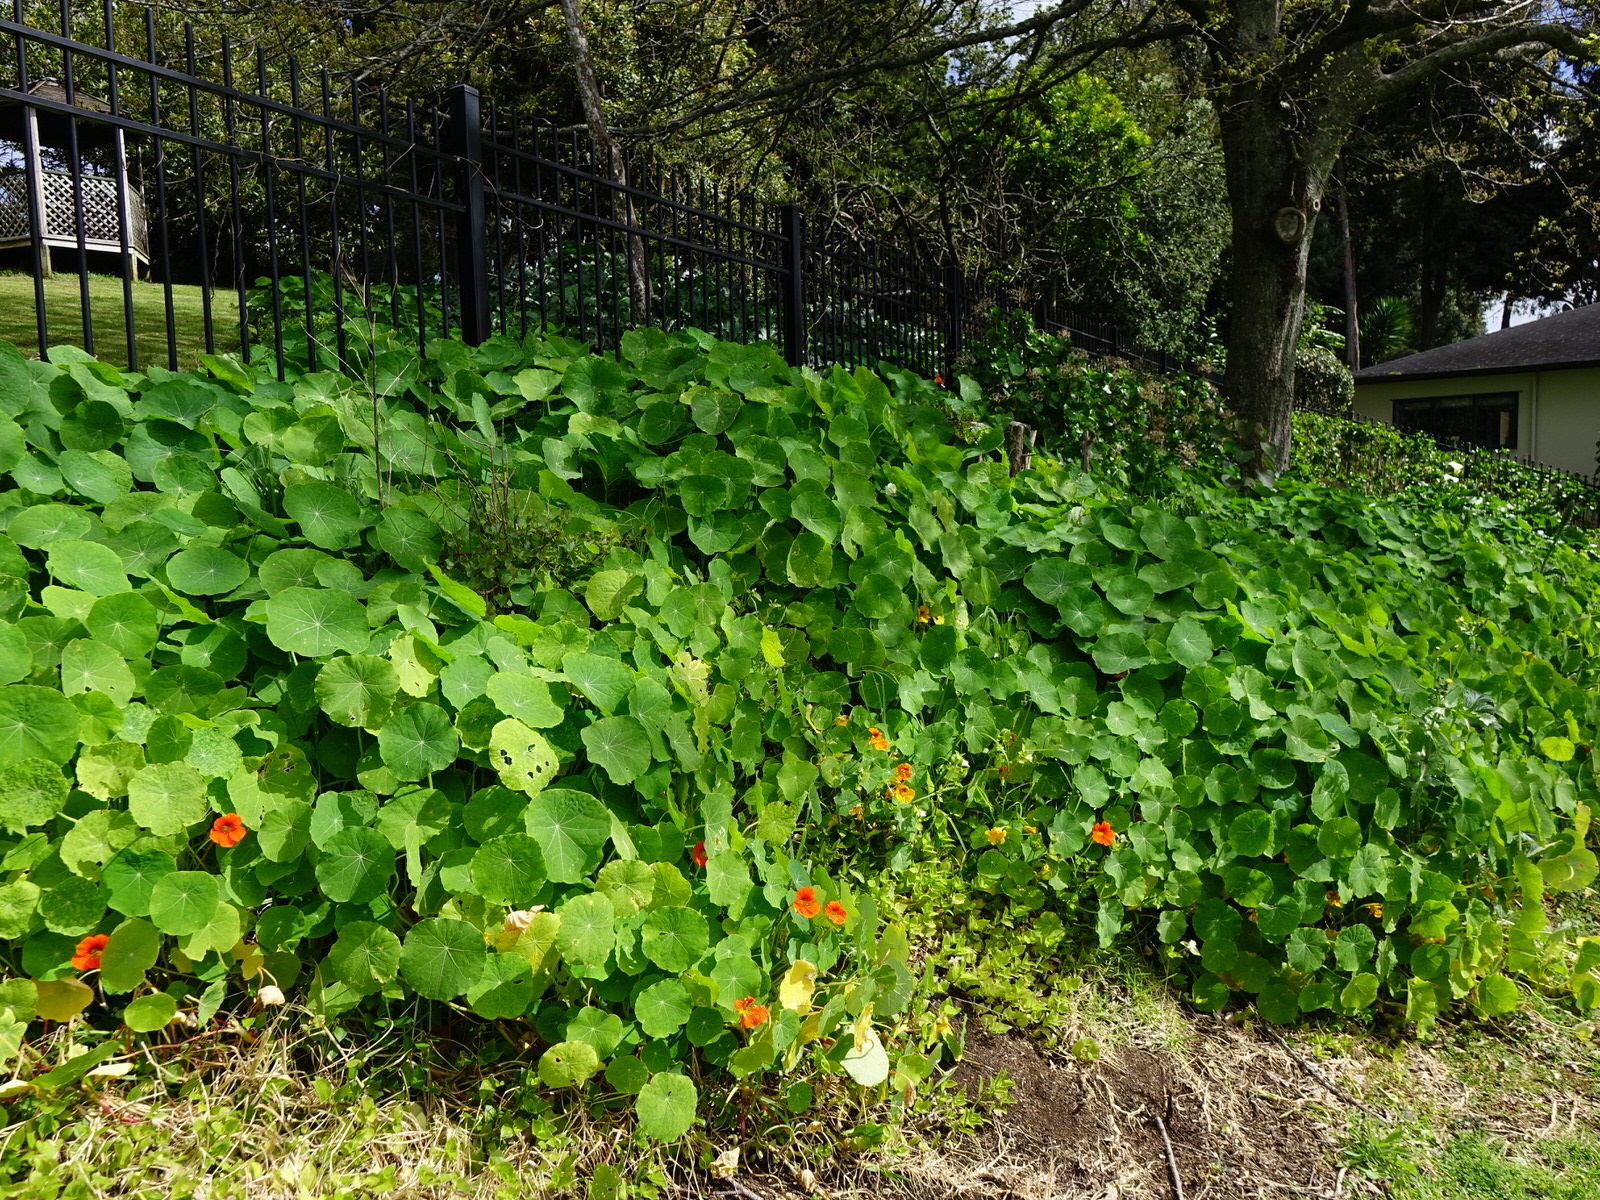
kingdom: Animalia
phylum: Arthropoda
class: Insecta
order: Lepidoptera
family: Pieridae
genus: Pieris
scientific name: Pieris rapae
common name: Small white
